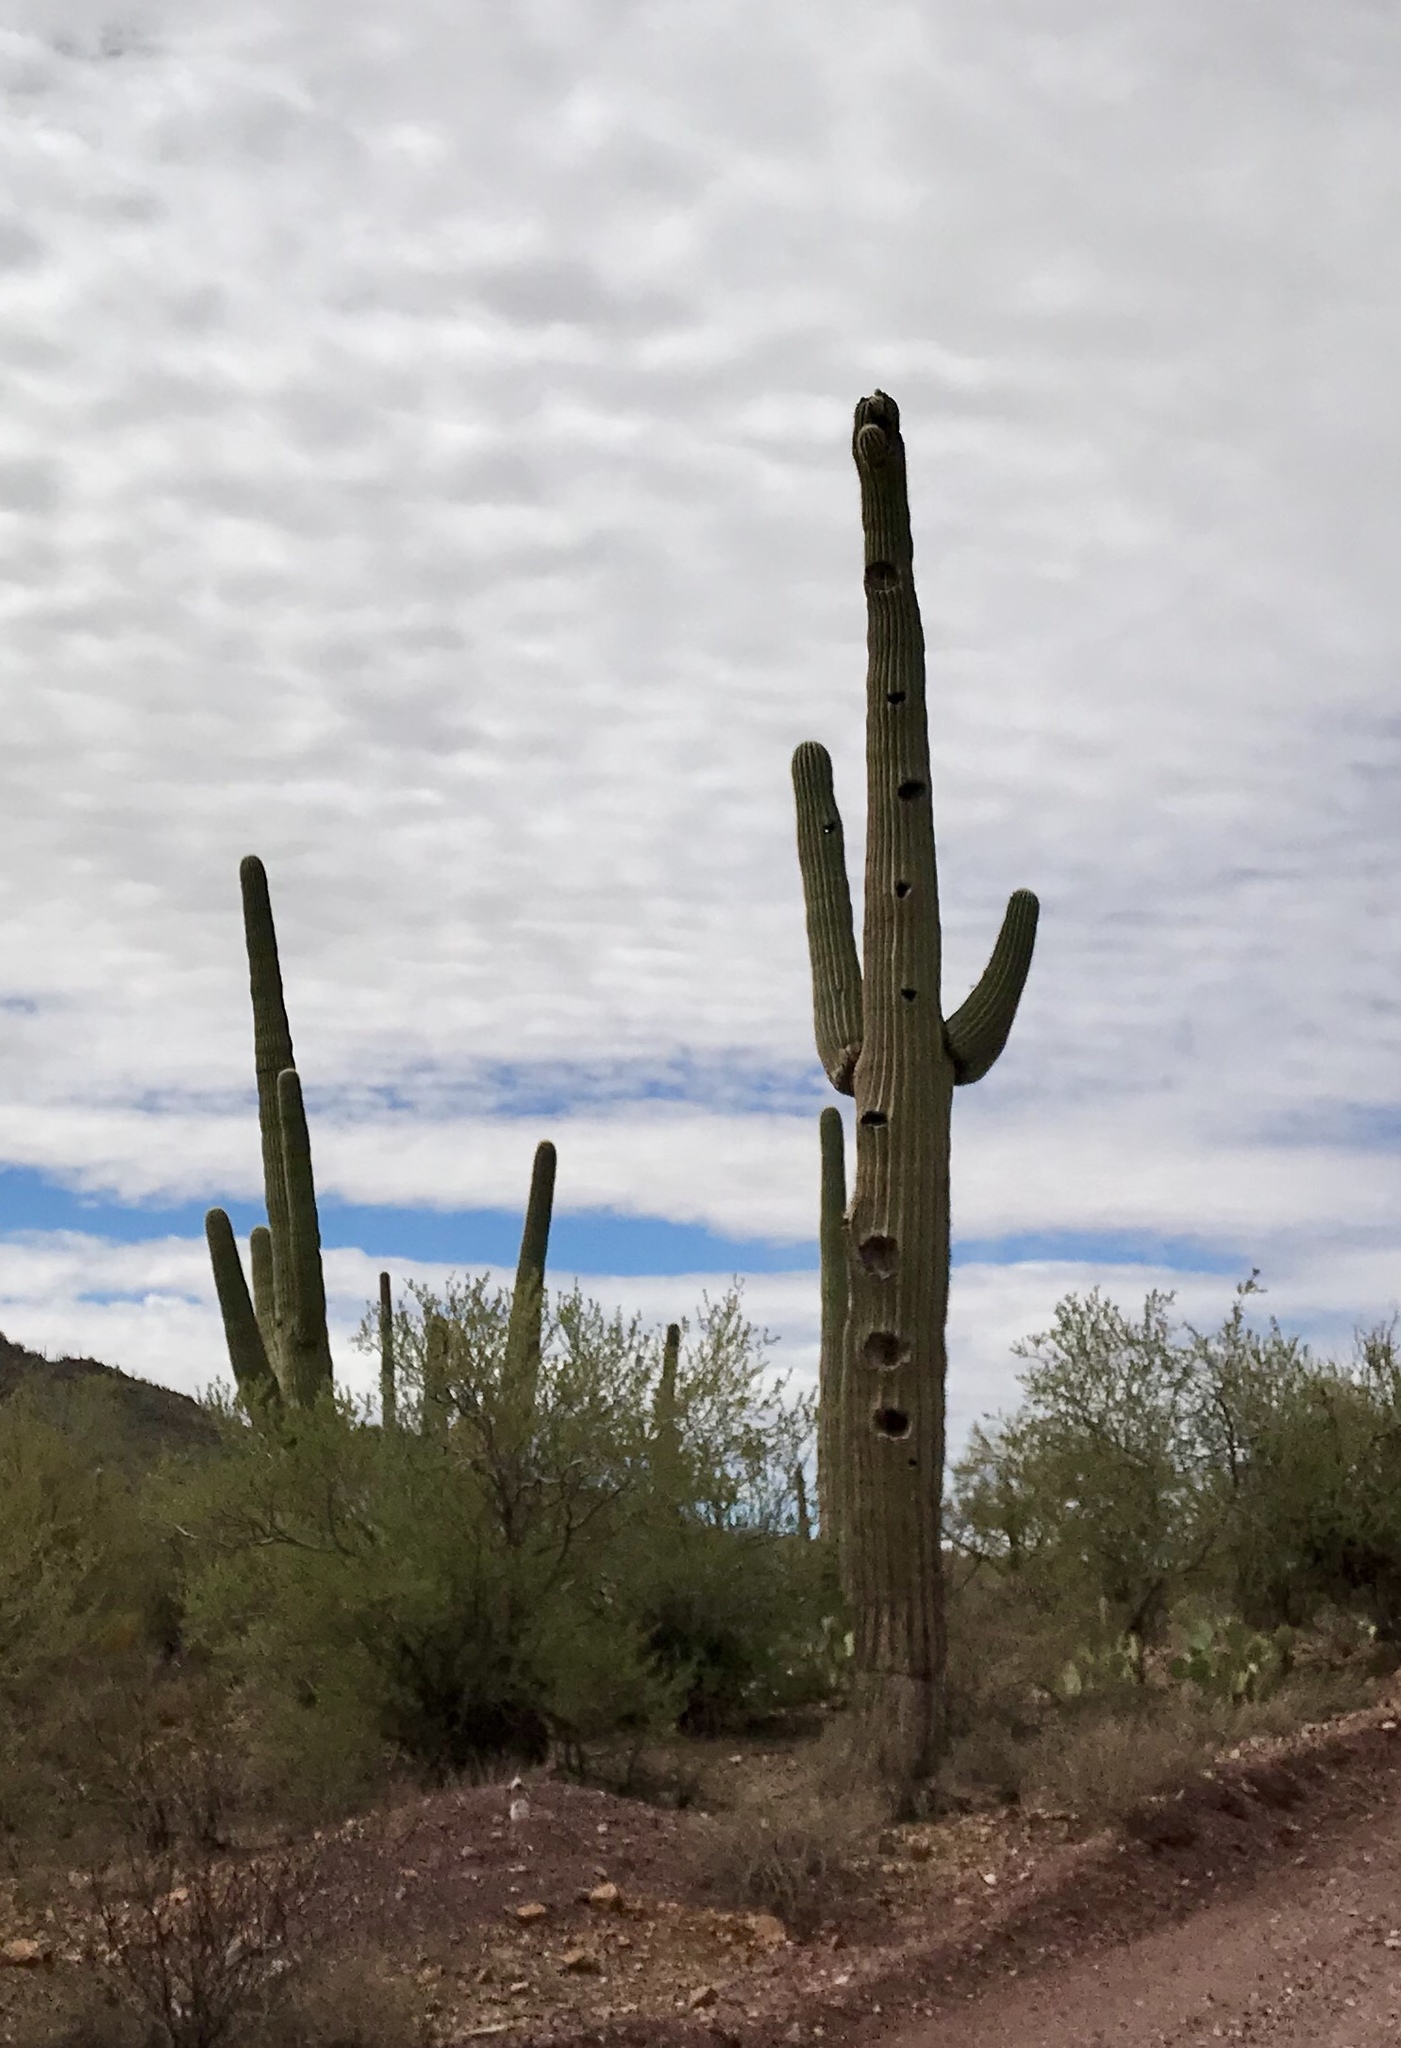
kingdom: Plantae
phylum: Tracheophyta
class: Magnoliopsida
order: Caryophyllales
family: Cactaceae
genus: Carnegiea
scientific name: Carnegiea gigantea
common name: Saguaro
